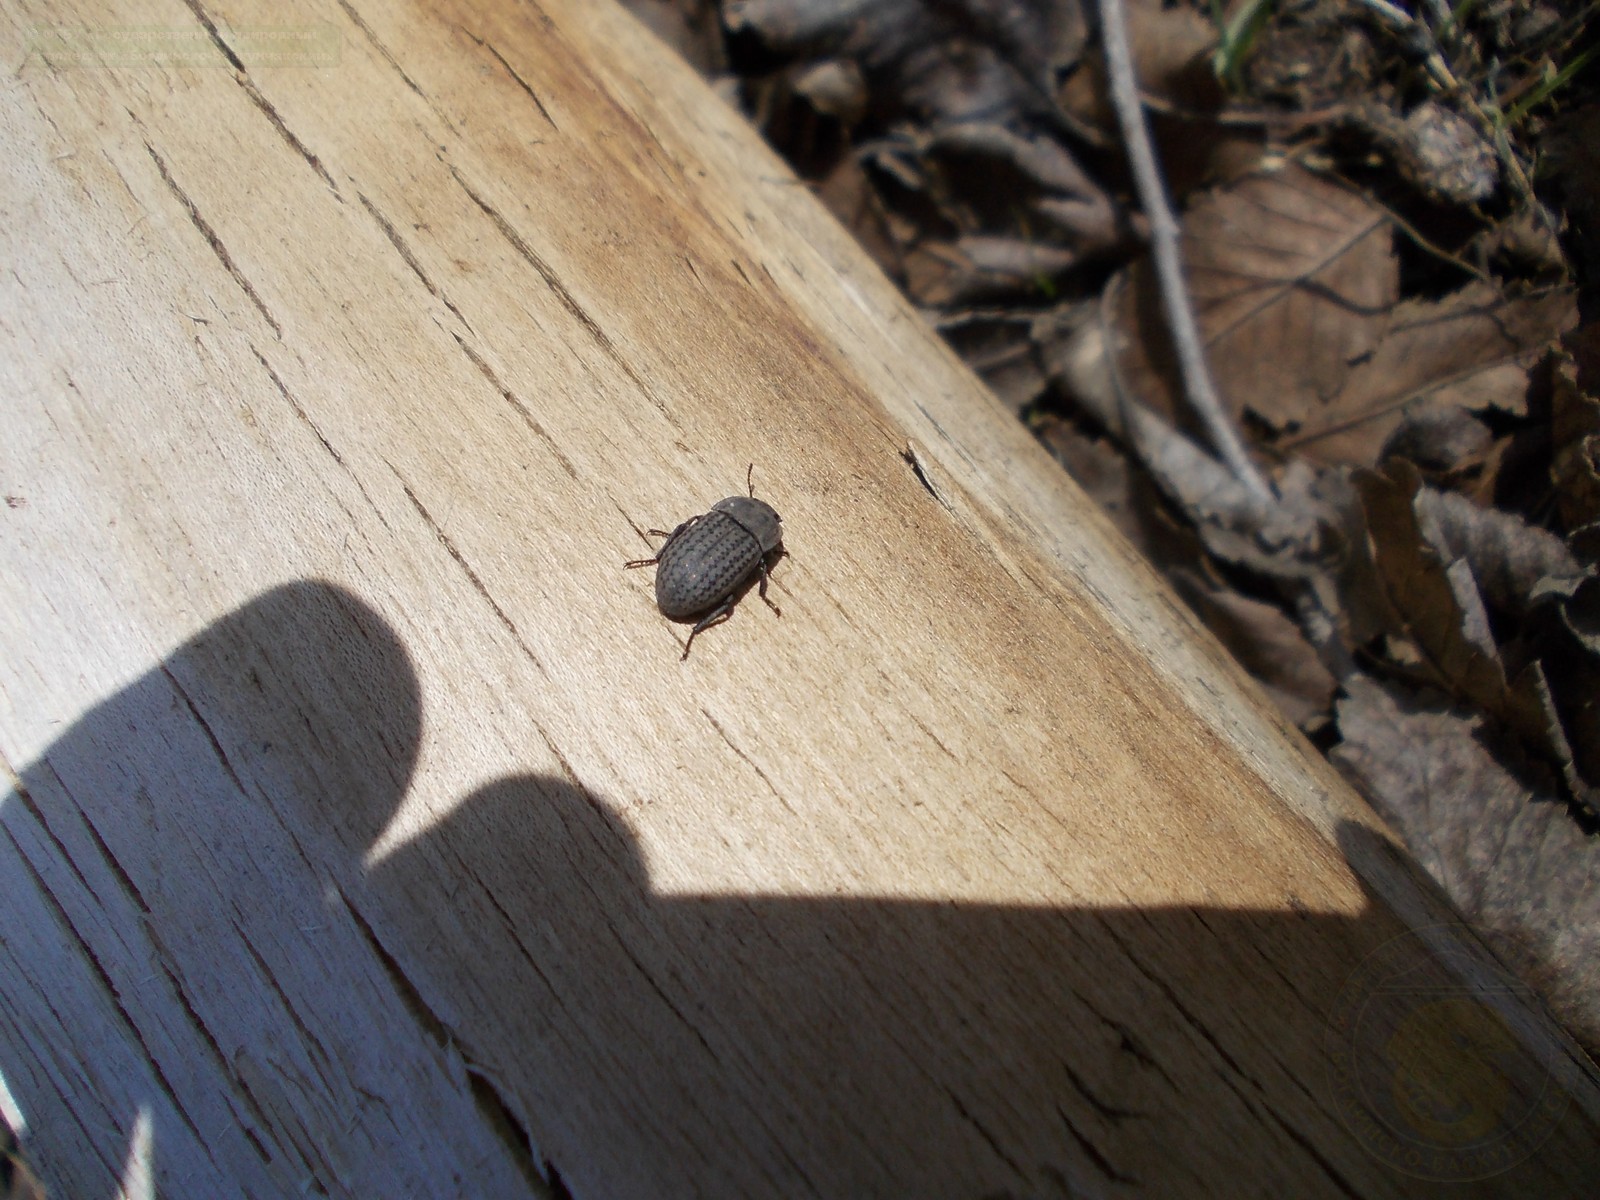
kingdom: Animalia
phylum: Arthropoda
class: Insecta
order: Coleoptera
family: Tenebrionidae
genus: Opatrum
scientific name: Opatrum sabulosum
